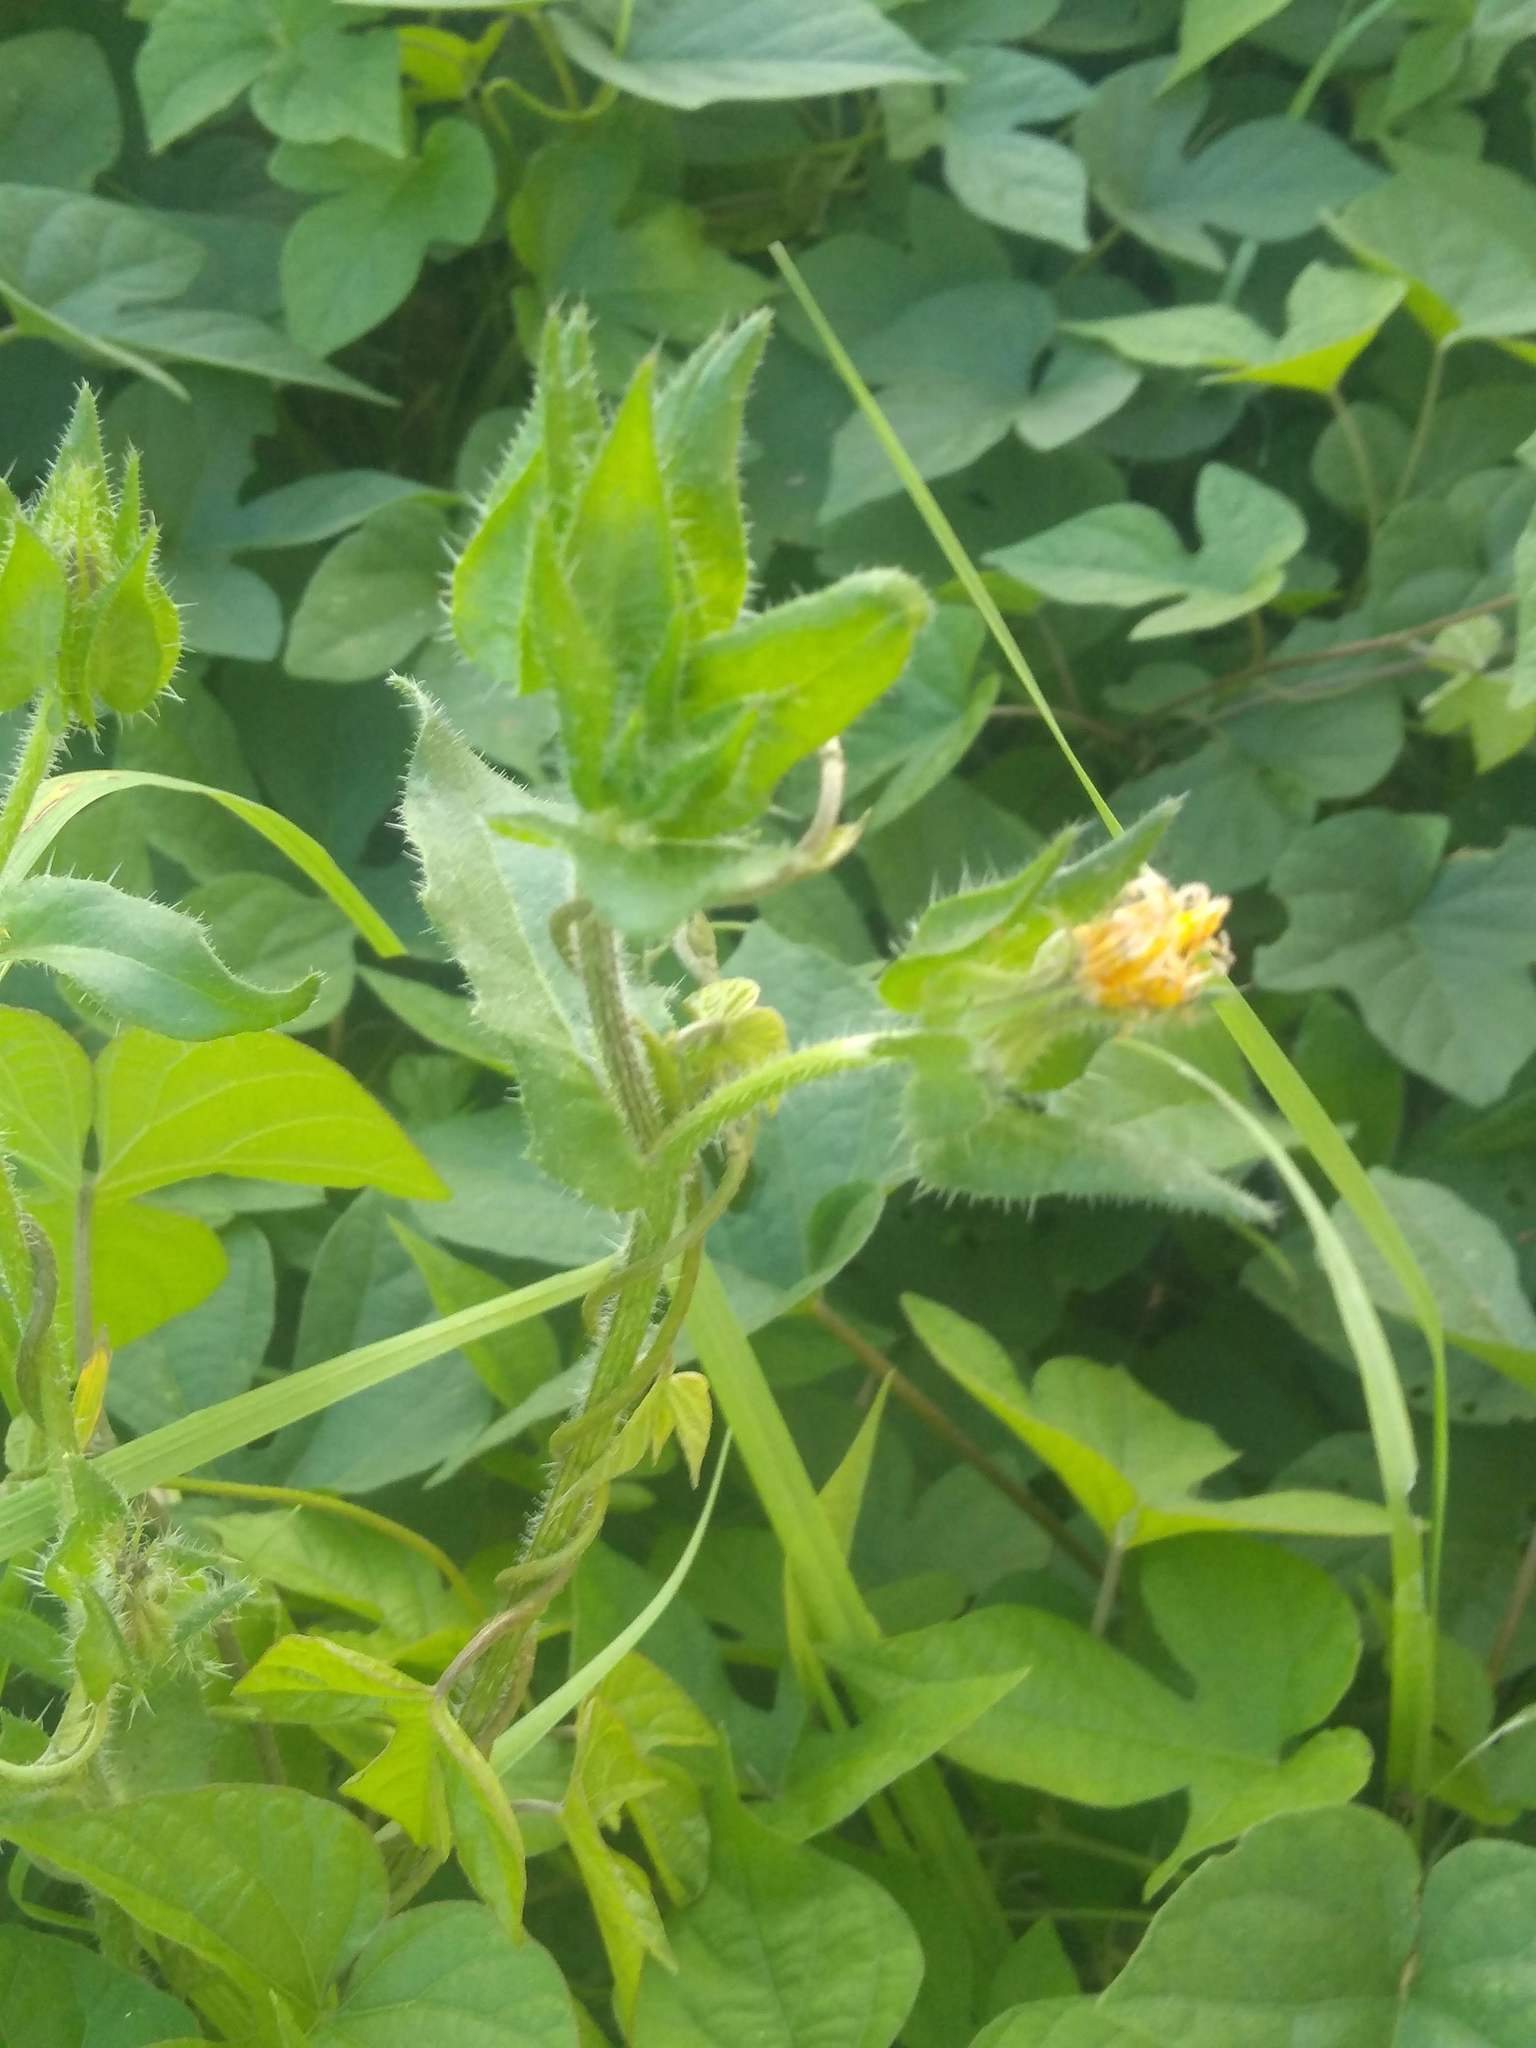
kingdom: Plantae
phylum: Tracheophyta
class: Magnoliopsida
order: Asterales
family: Asteraceae
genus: Helminthotheca
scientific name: Helminthotheca echioides
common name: Ox-tongue
